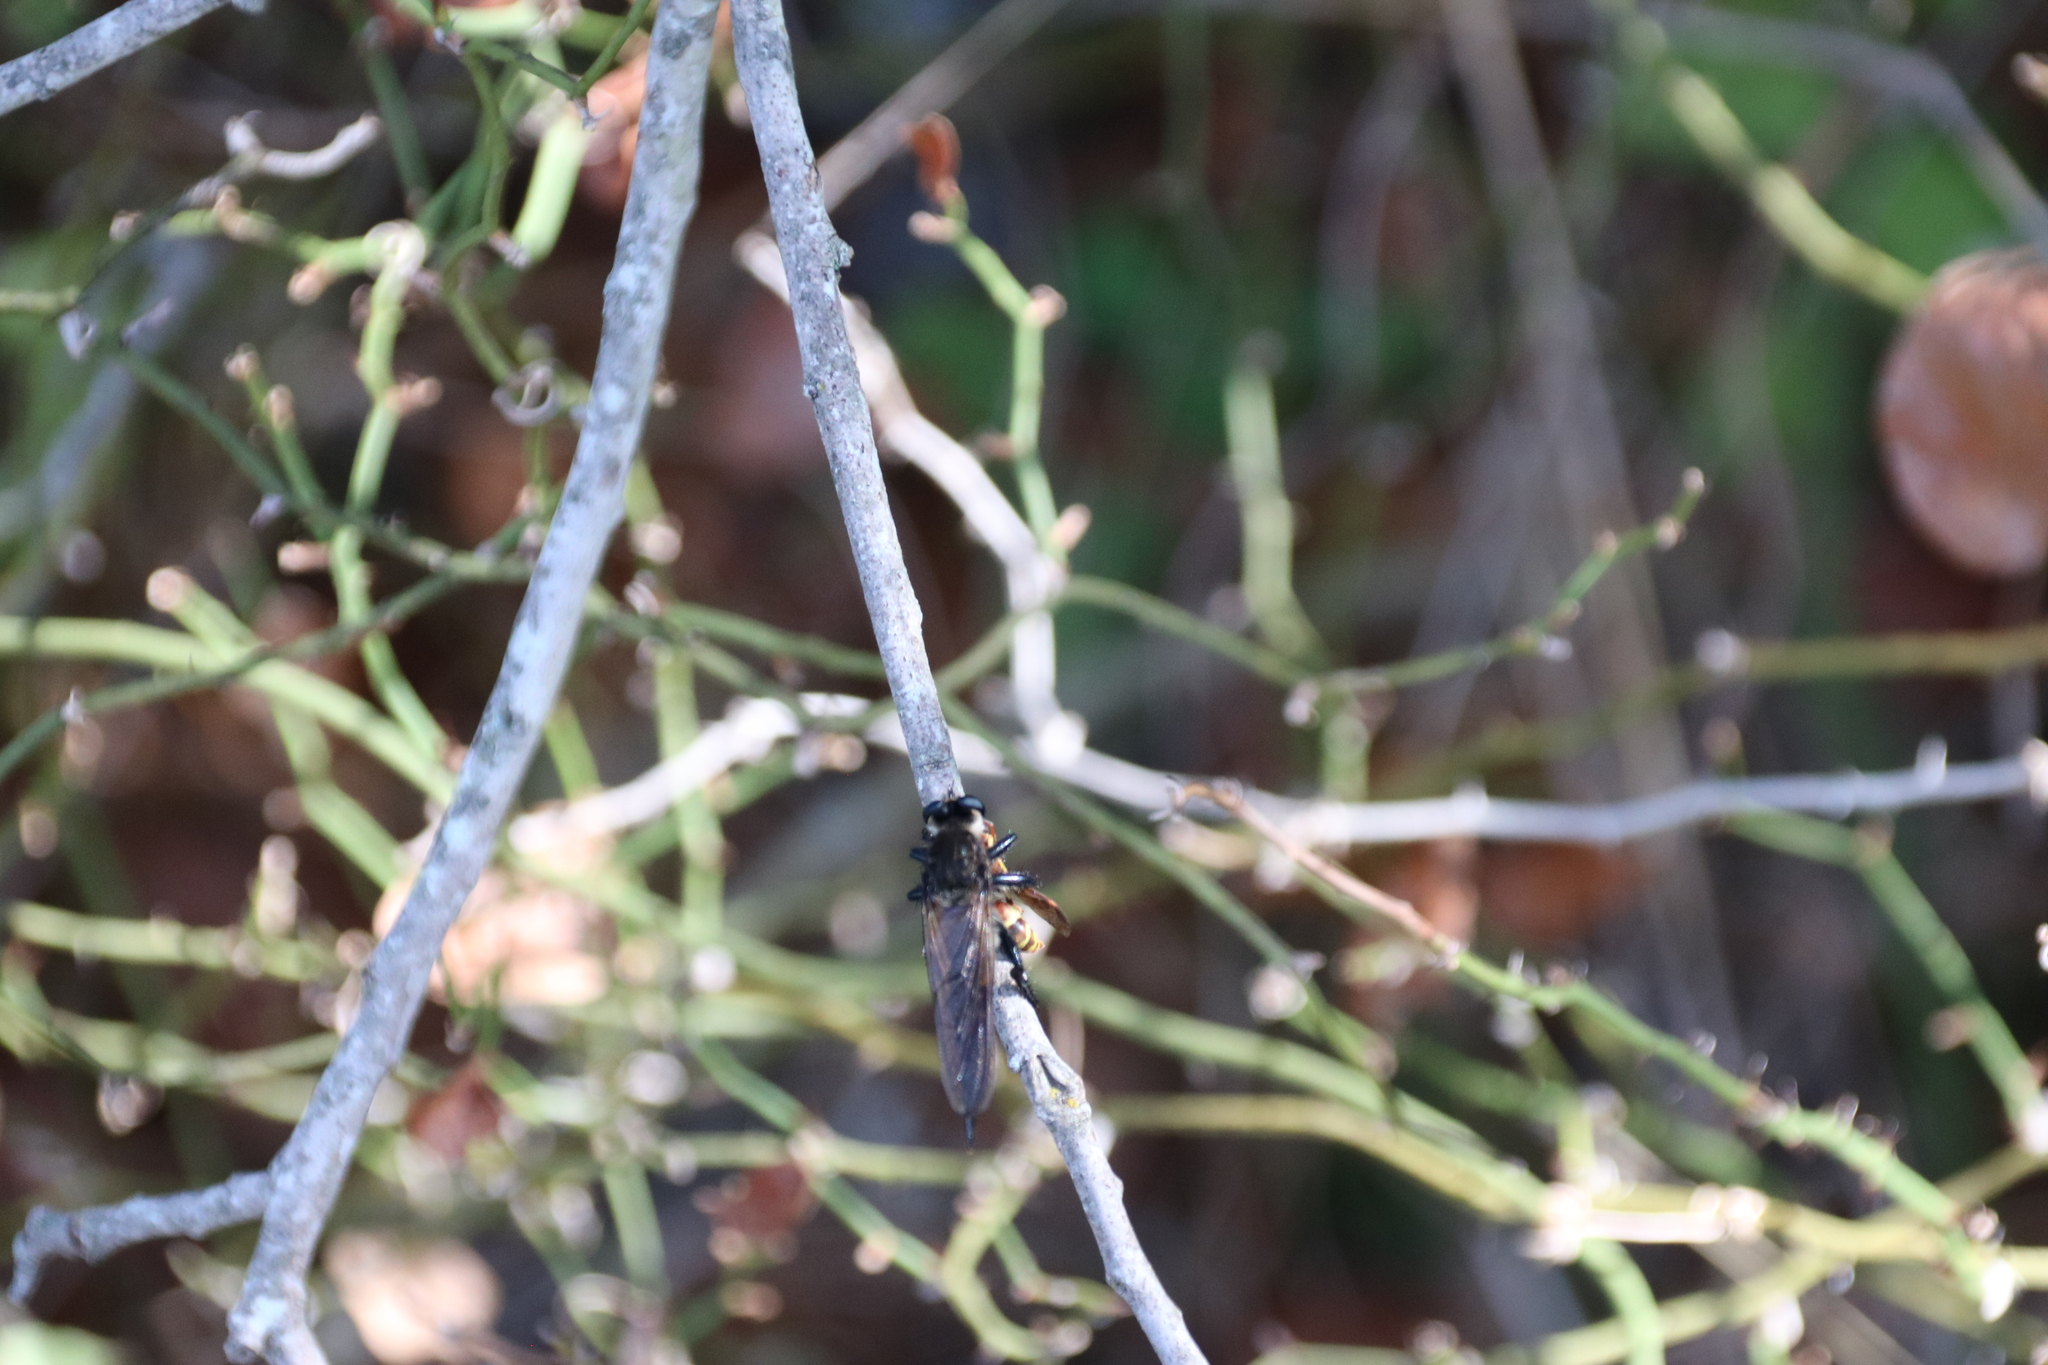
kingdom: Animalia
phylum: Arthropoda
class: Insecta
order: Diptera
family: Asilidae
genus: Promachus
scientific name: Promachus painteri
